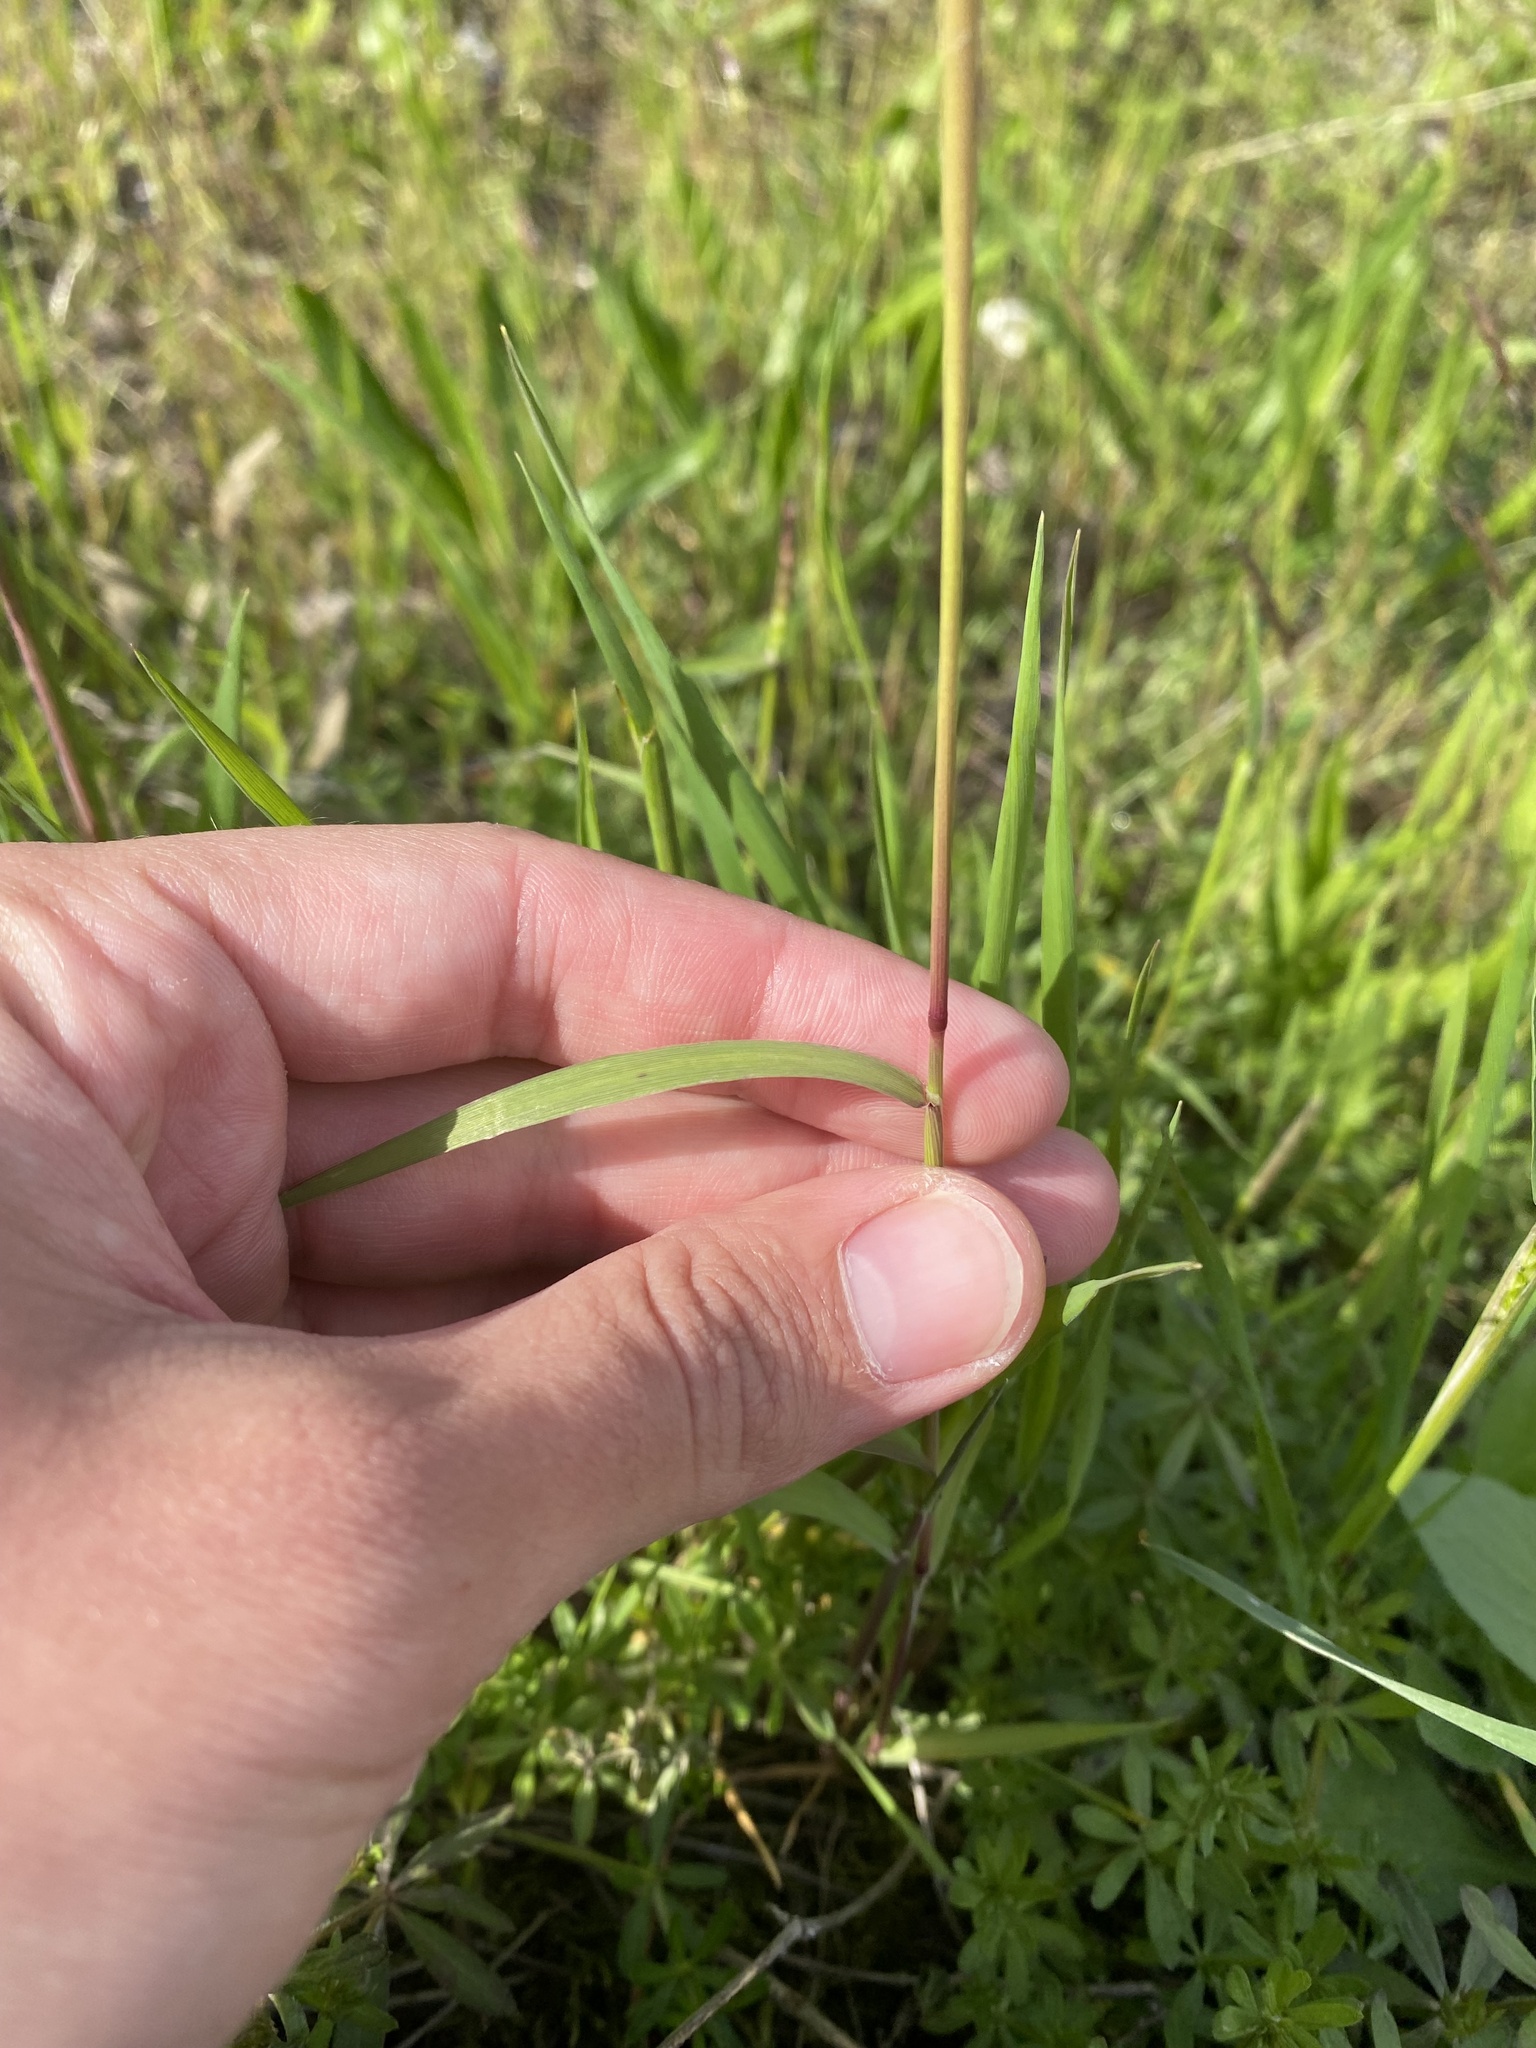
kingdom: Plantae
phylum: Tracheophyta
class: Liliopsida
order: Poales
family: Poaceae
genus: Alopecurus
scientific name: Alopecurus myosuroides
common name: Black-grass
